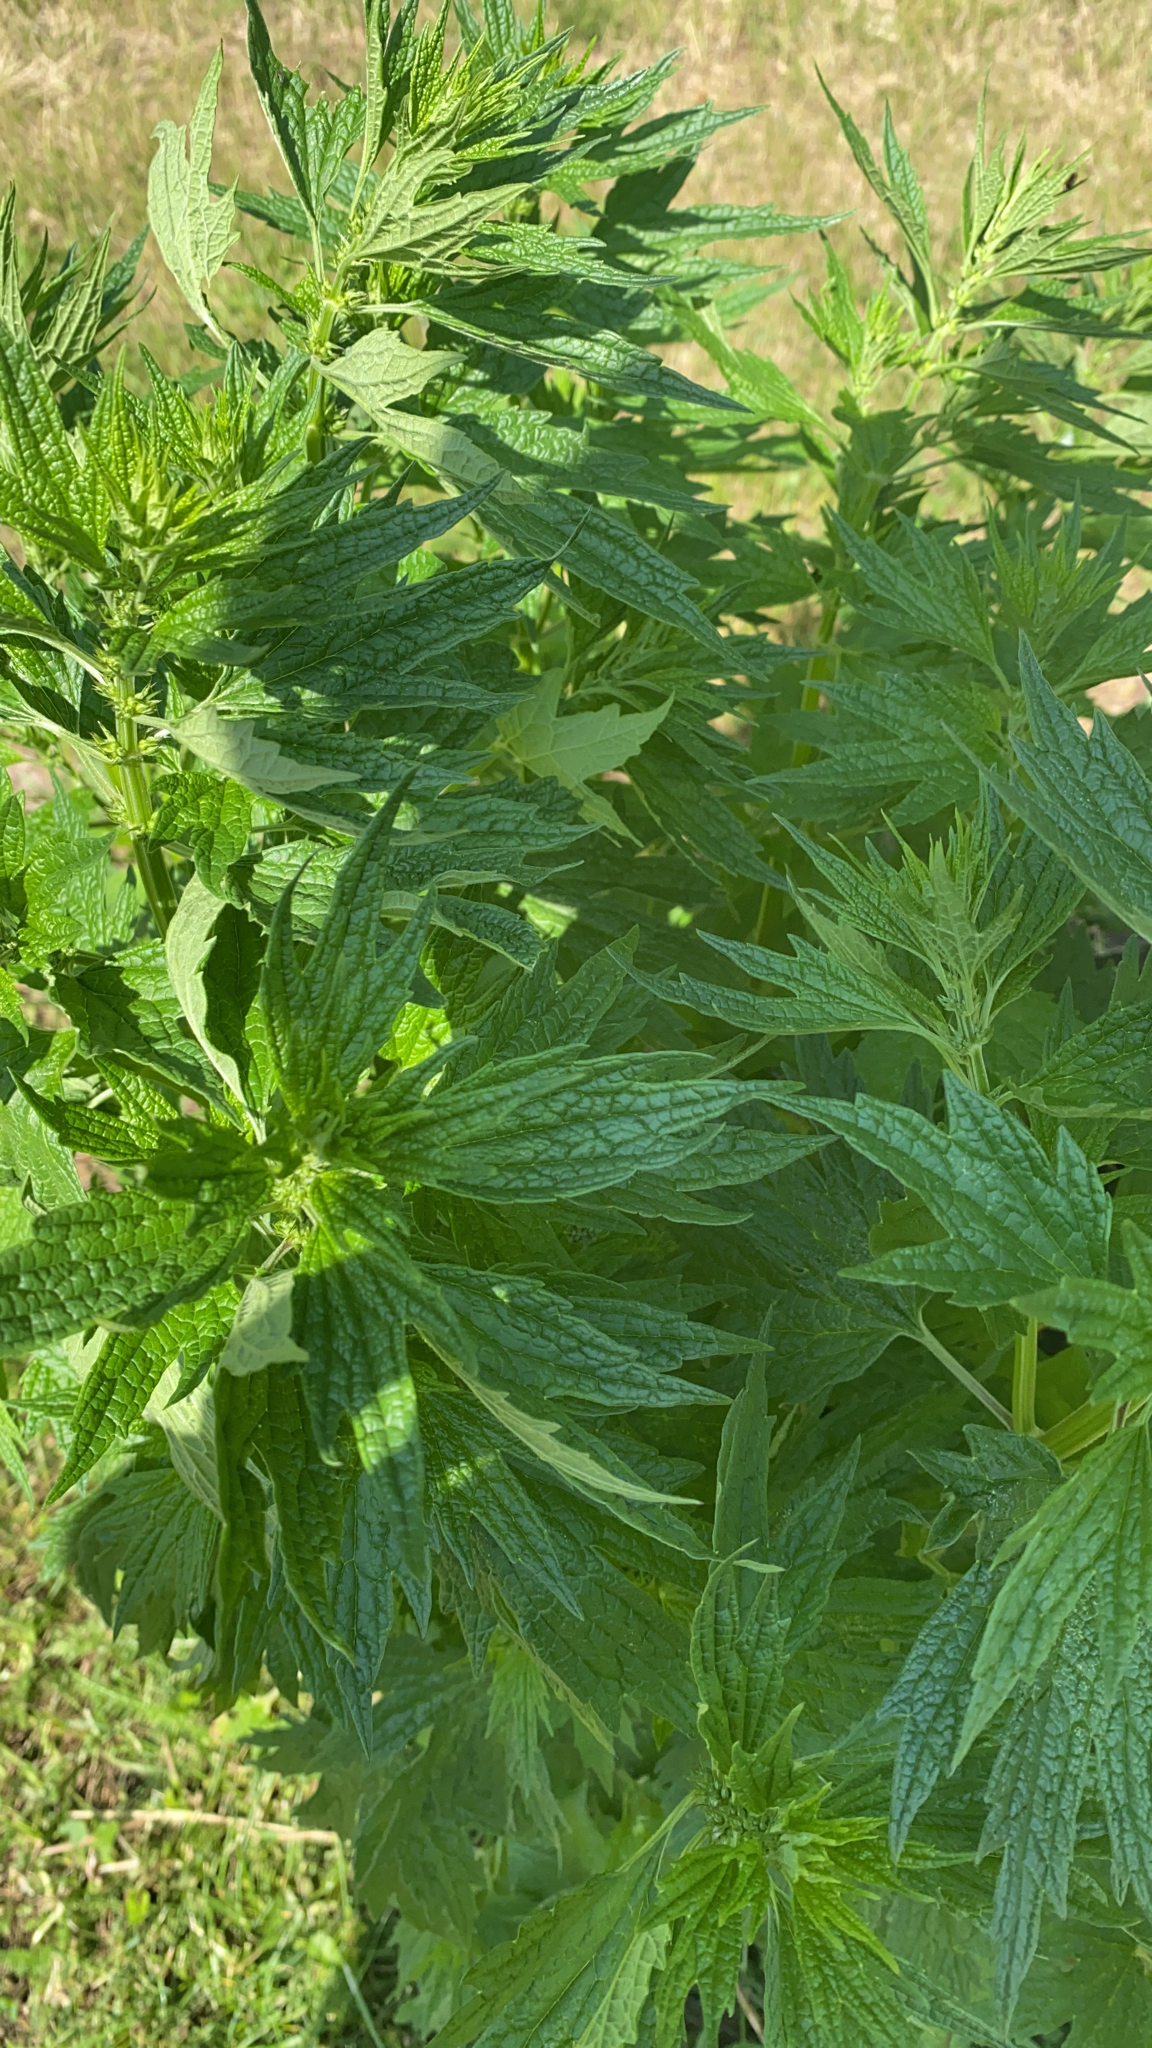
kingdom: Plantae
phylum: Tracheophyta
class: Magnoliopsida
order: Lamiales
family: Lamiaceae
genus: Leonurus
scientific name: Leonurus cardiaca
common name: Motherwort
